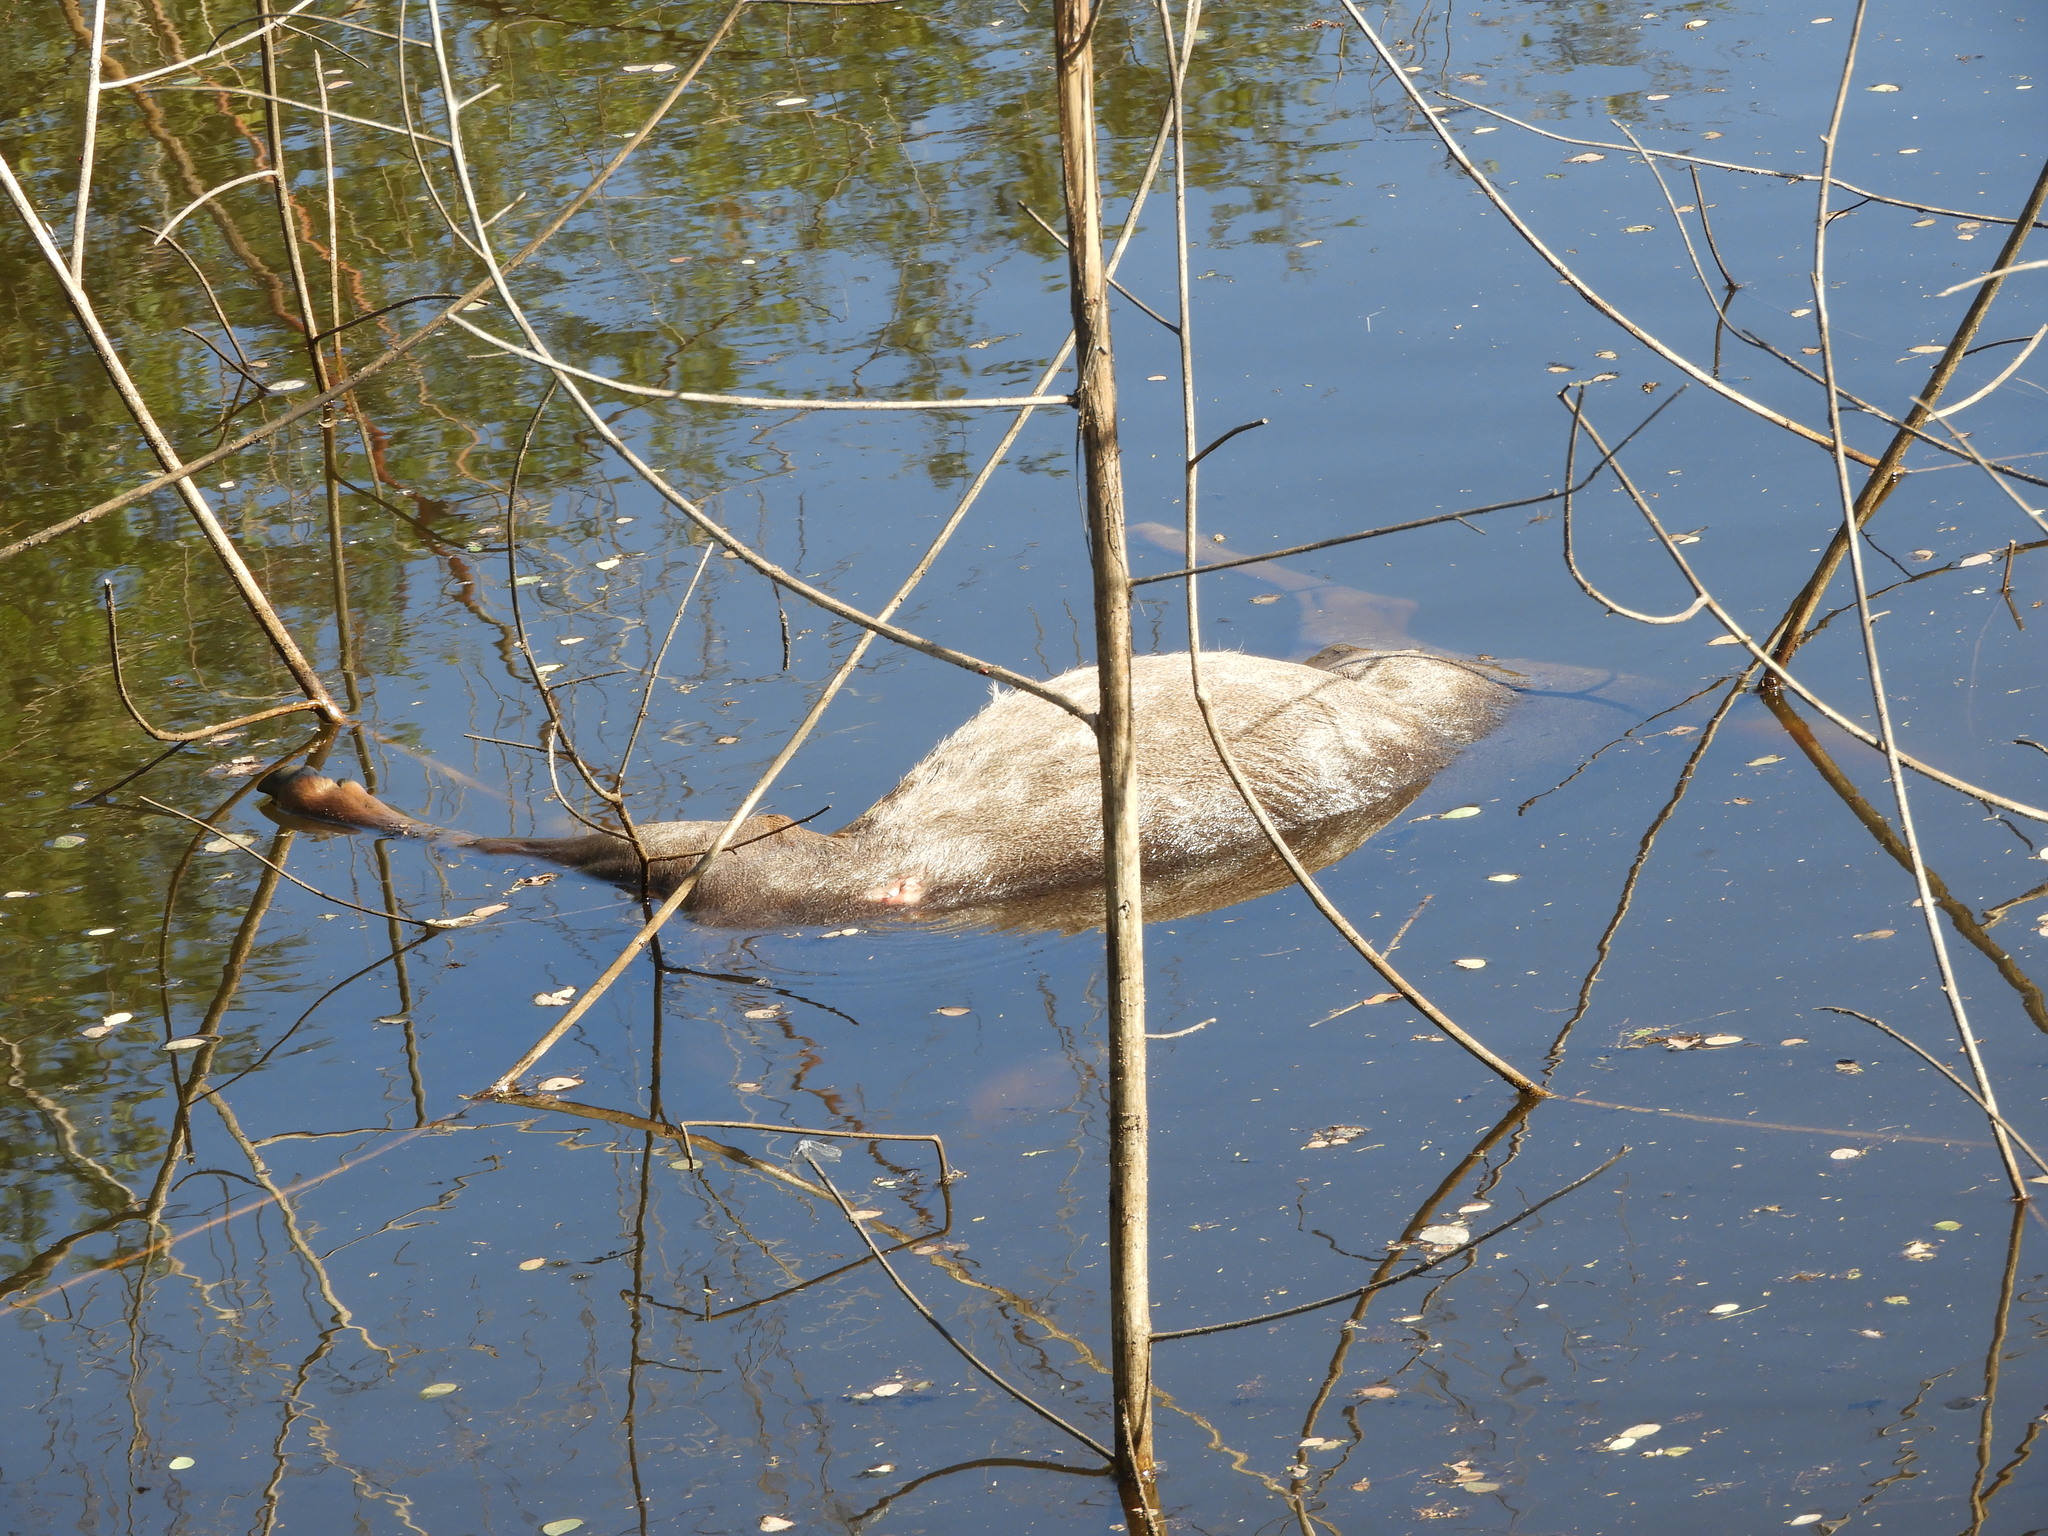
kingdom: Animalia
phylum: Chordata
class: Mammalia
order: Artiodactyla
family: Cervidae
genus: Odocoileus
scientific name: Odocoileus virginianus
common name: White-tailed deer
